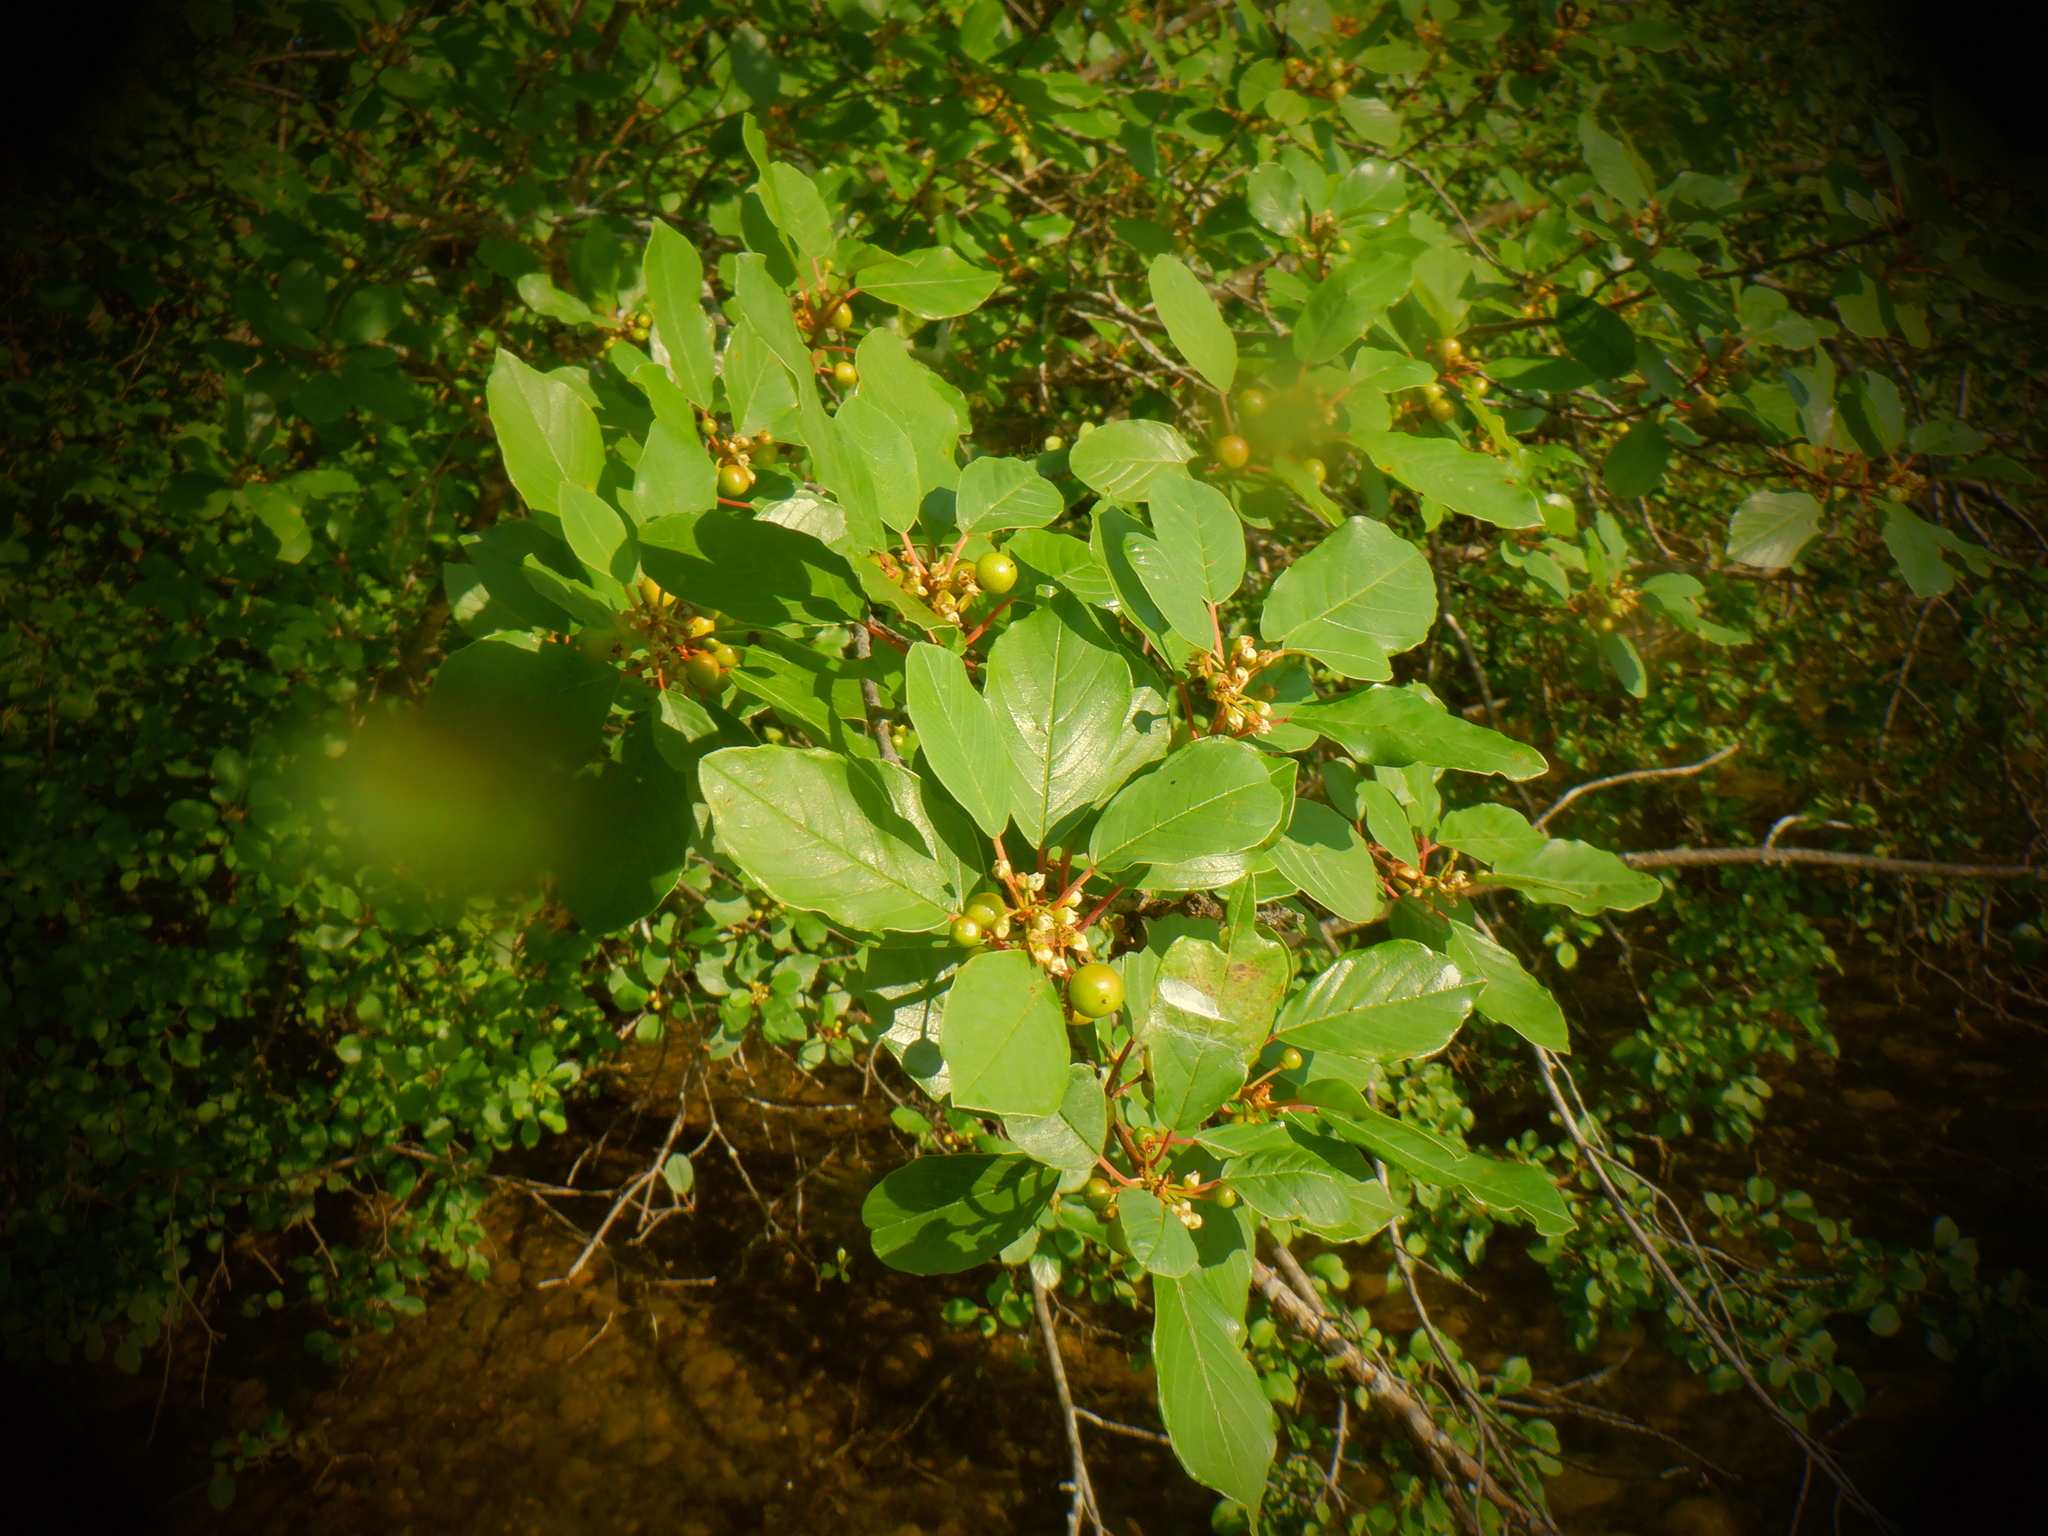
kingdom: Plantae
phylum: Tracheophyta
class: Magnoliopsida
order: Rosales
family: Rhamnaceae
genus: Frangula
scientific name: Frangula alnus
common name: Alder buckthorn
